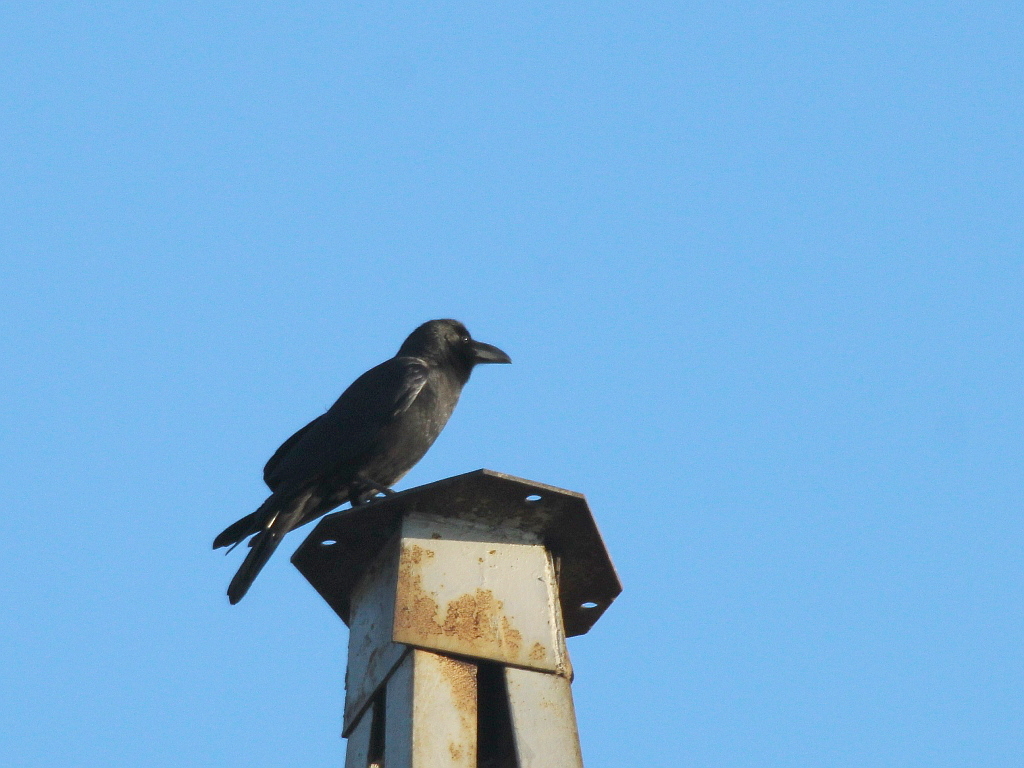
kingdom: Animalia
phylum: Chordata
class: Aves
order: Passeriformes
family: Corvidae
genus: Corvus
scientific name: Corvus macrorhynchos
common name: Large-billed crow
